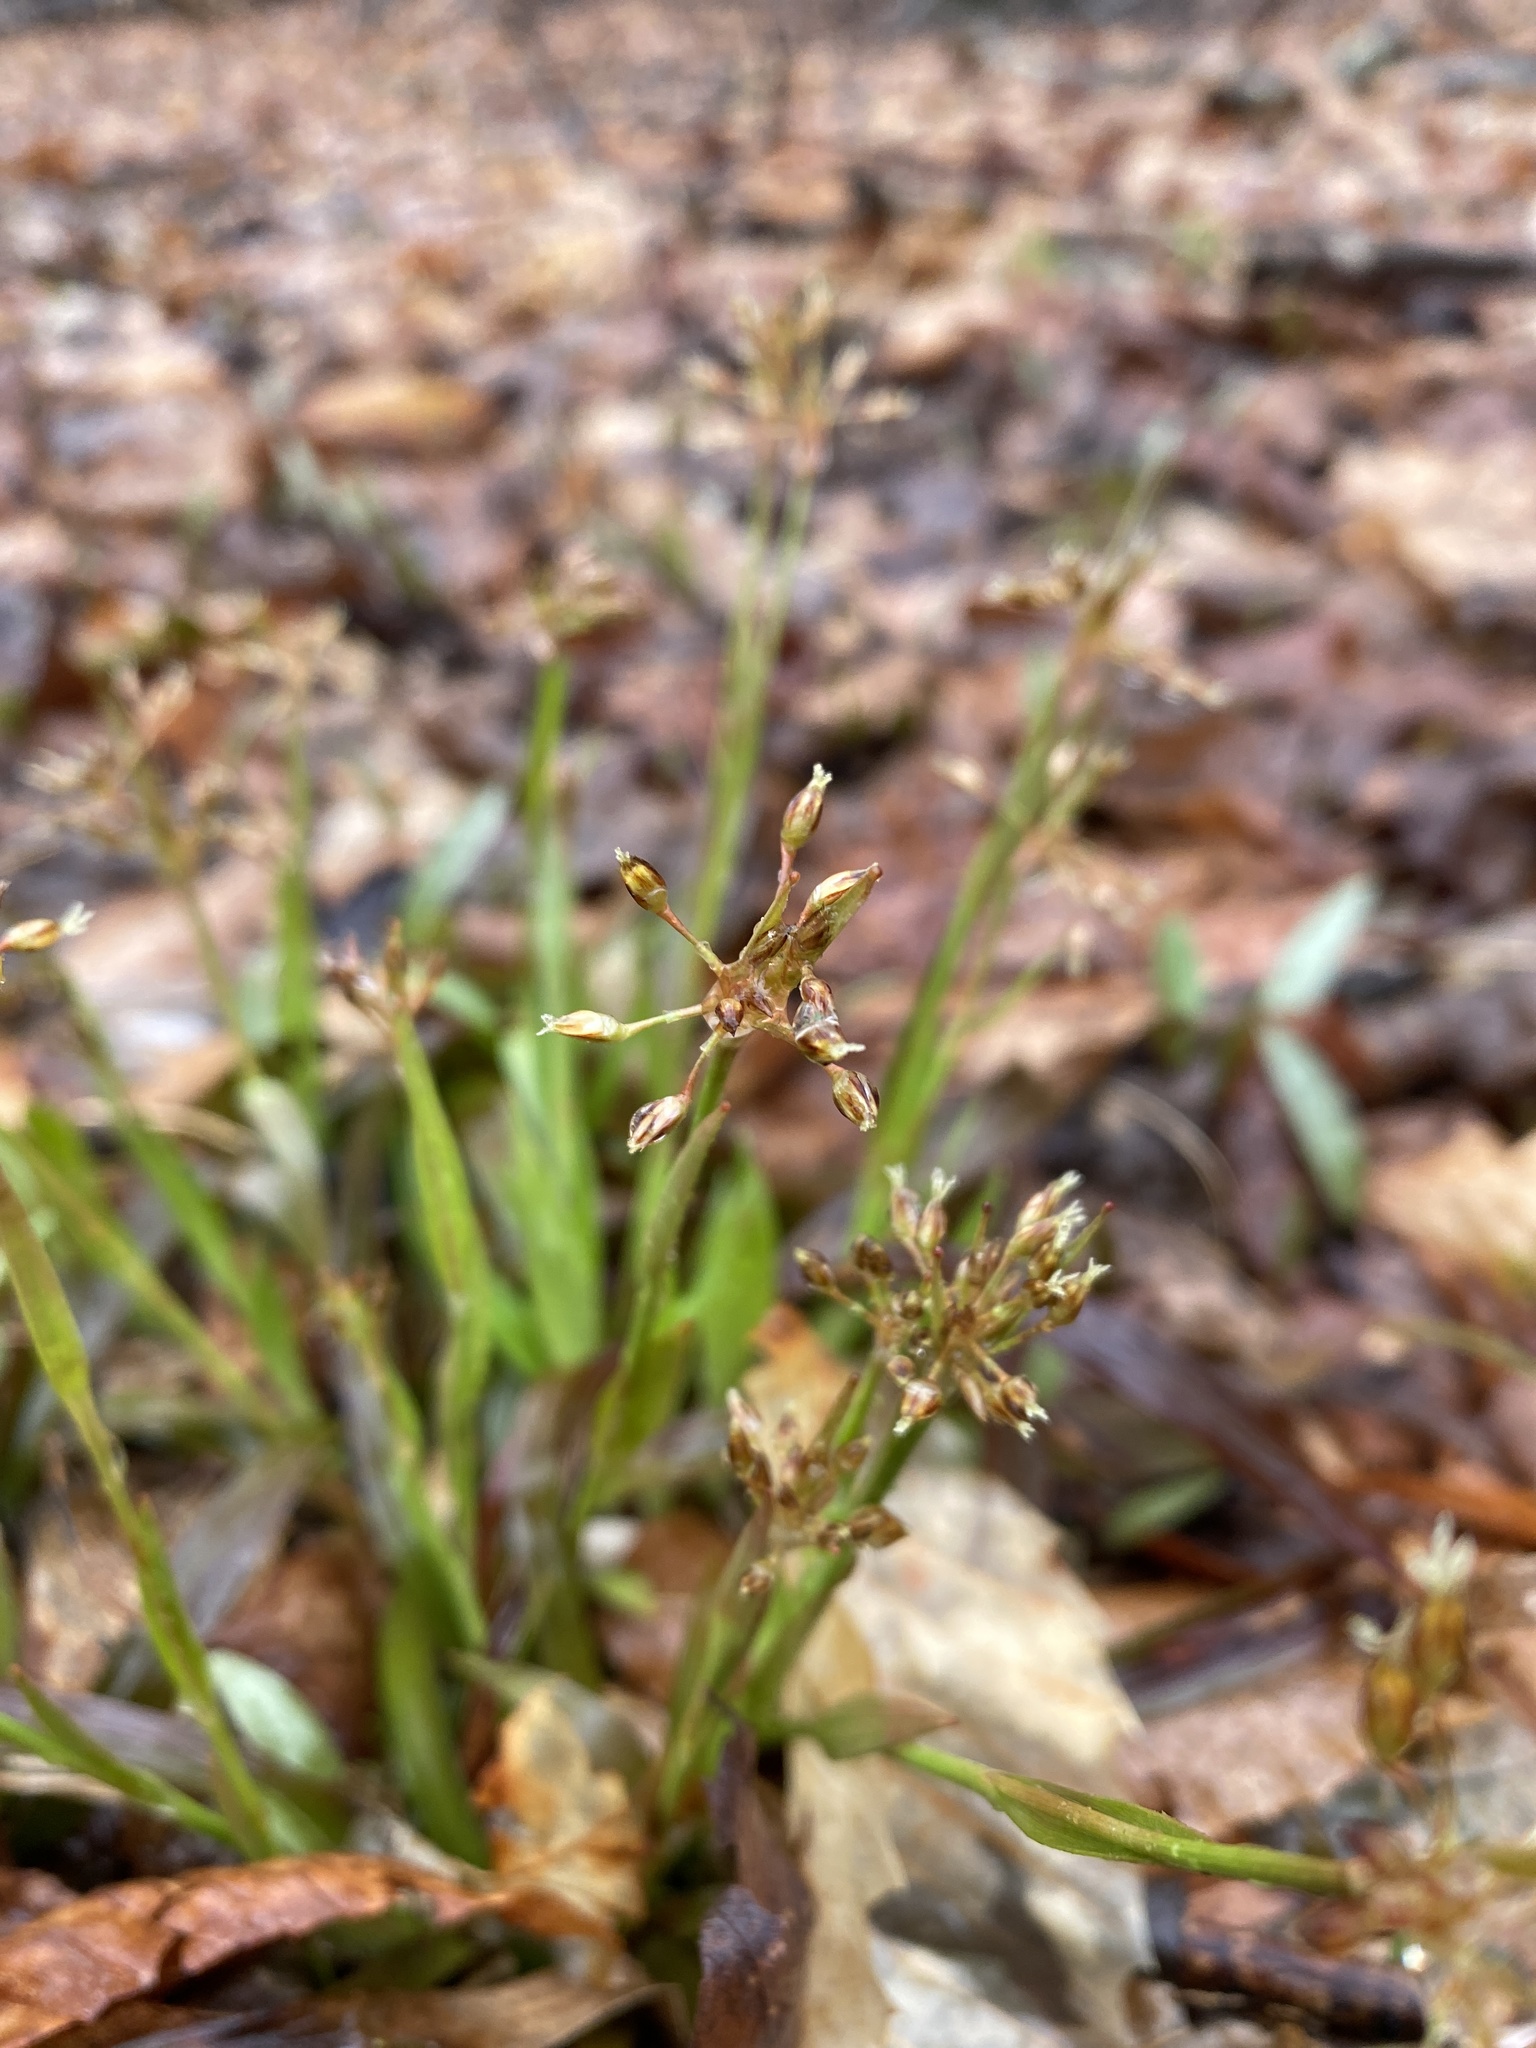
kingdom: Plantae
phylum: Tracheophyta
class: Liliopsida
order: Poales
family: Juncaceae
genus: Luzula
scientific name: Luzula acuminata
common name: Hairy woodrush
